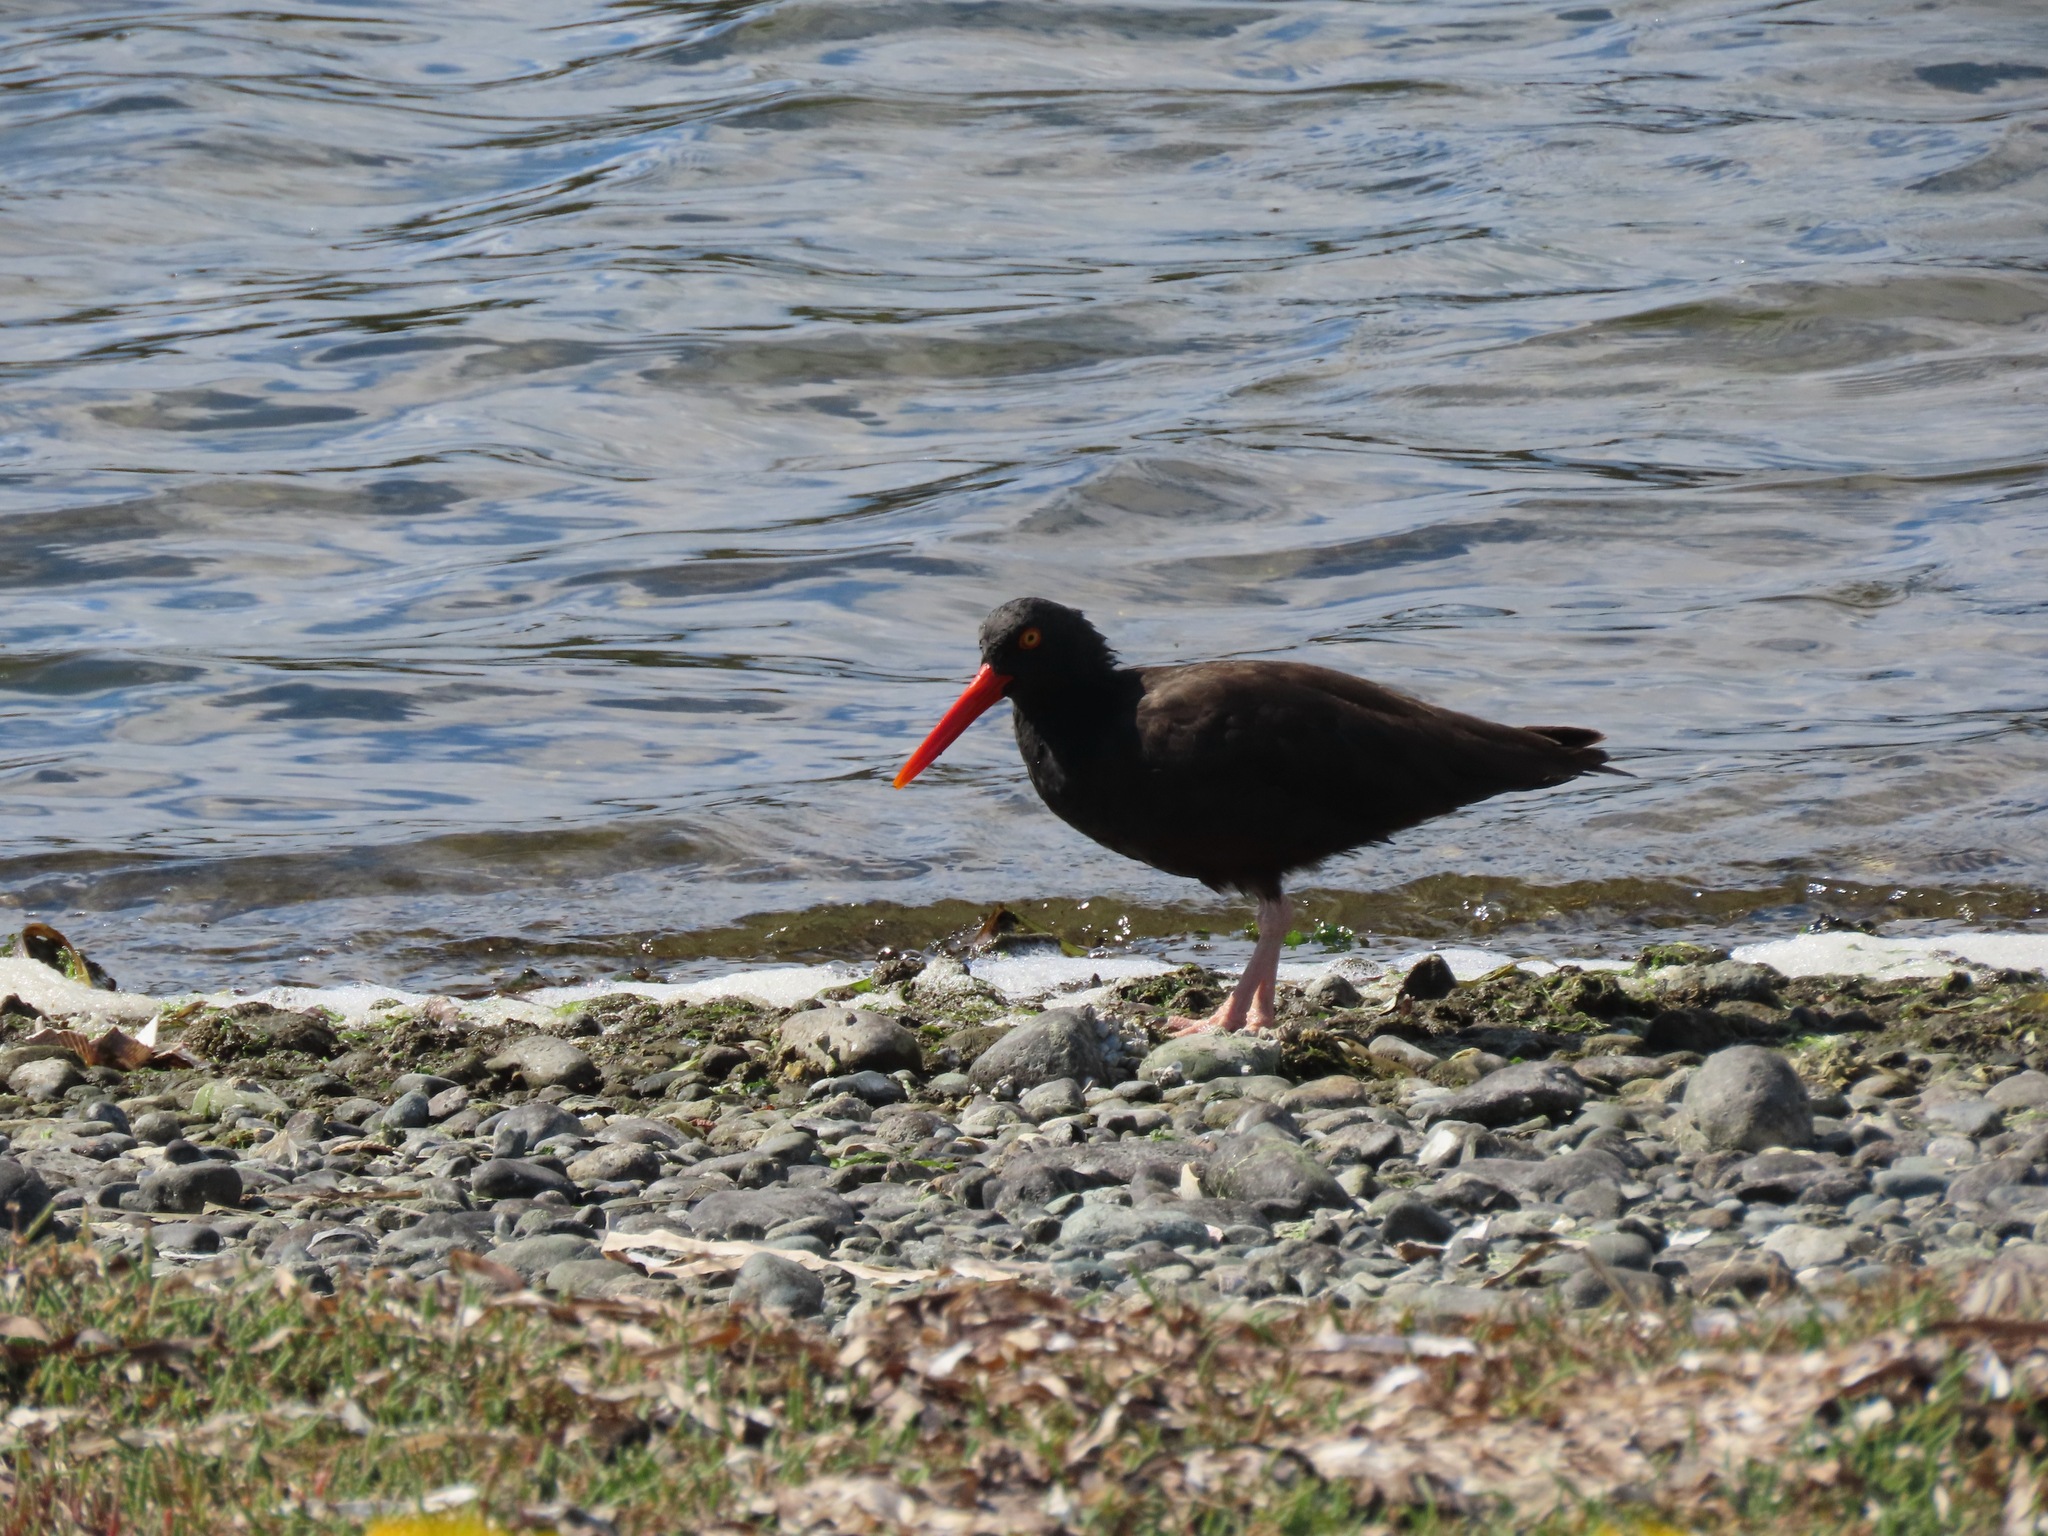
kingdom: Animalia
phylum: Chordata
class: Aves
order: Charadriiformes
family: Haematopodidae
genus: Haematopus
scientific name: Haematopus bachmani
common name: Black oystercatcher
